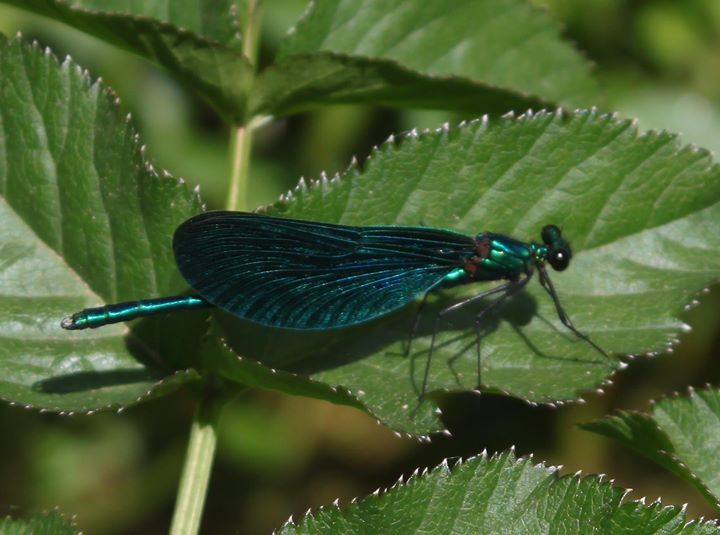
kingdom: Animalia
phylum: Arthropoda
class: Insecta
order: Odonata
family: Calopterygidae
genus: Calopteryx
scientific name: Calopteryx virgo
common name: Beautiful demoiselle
